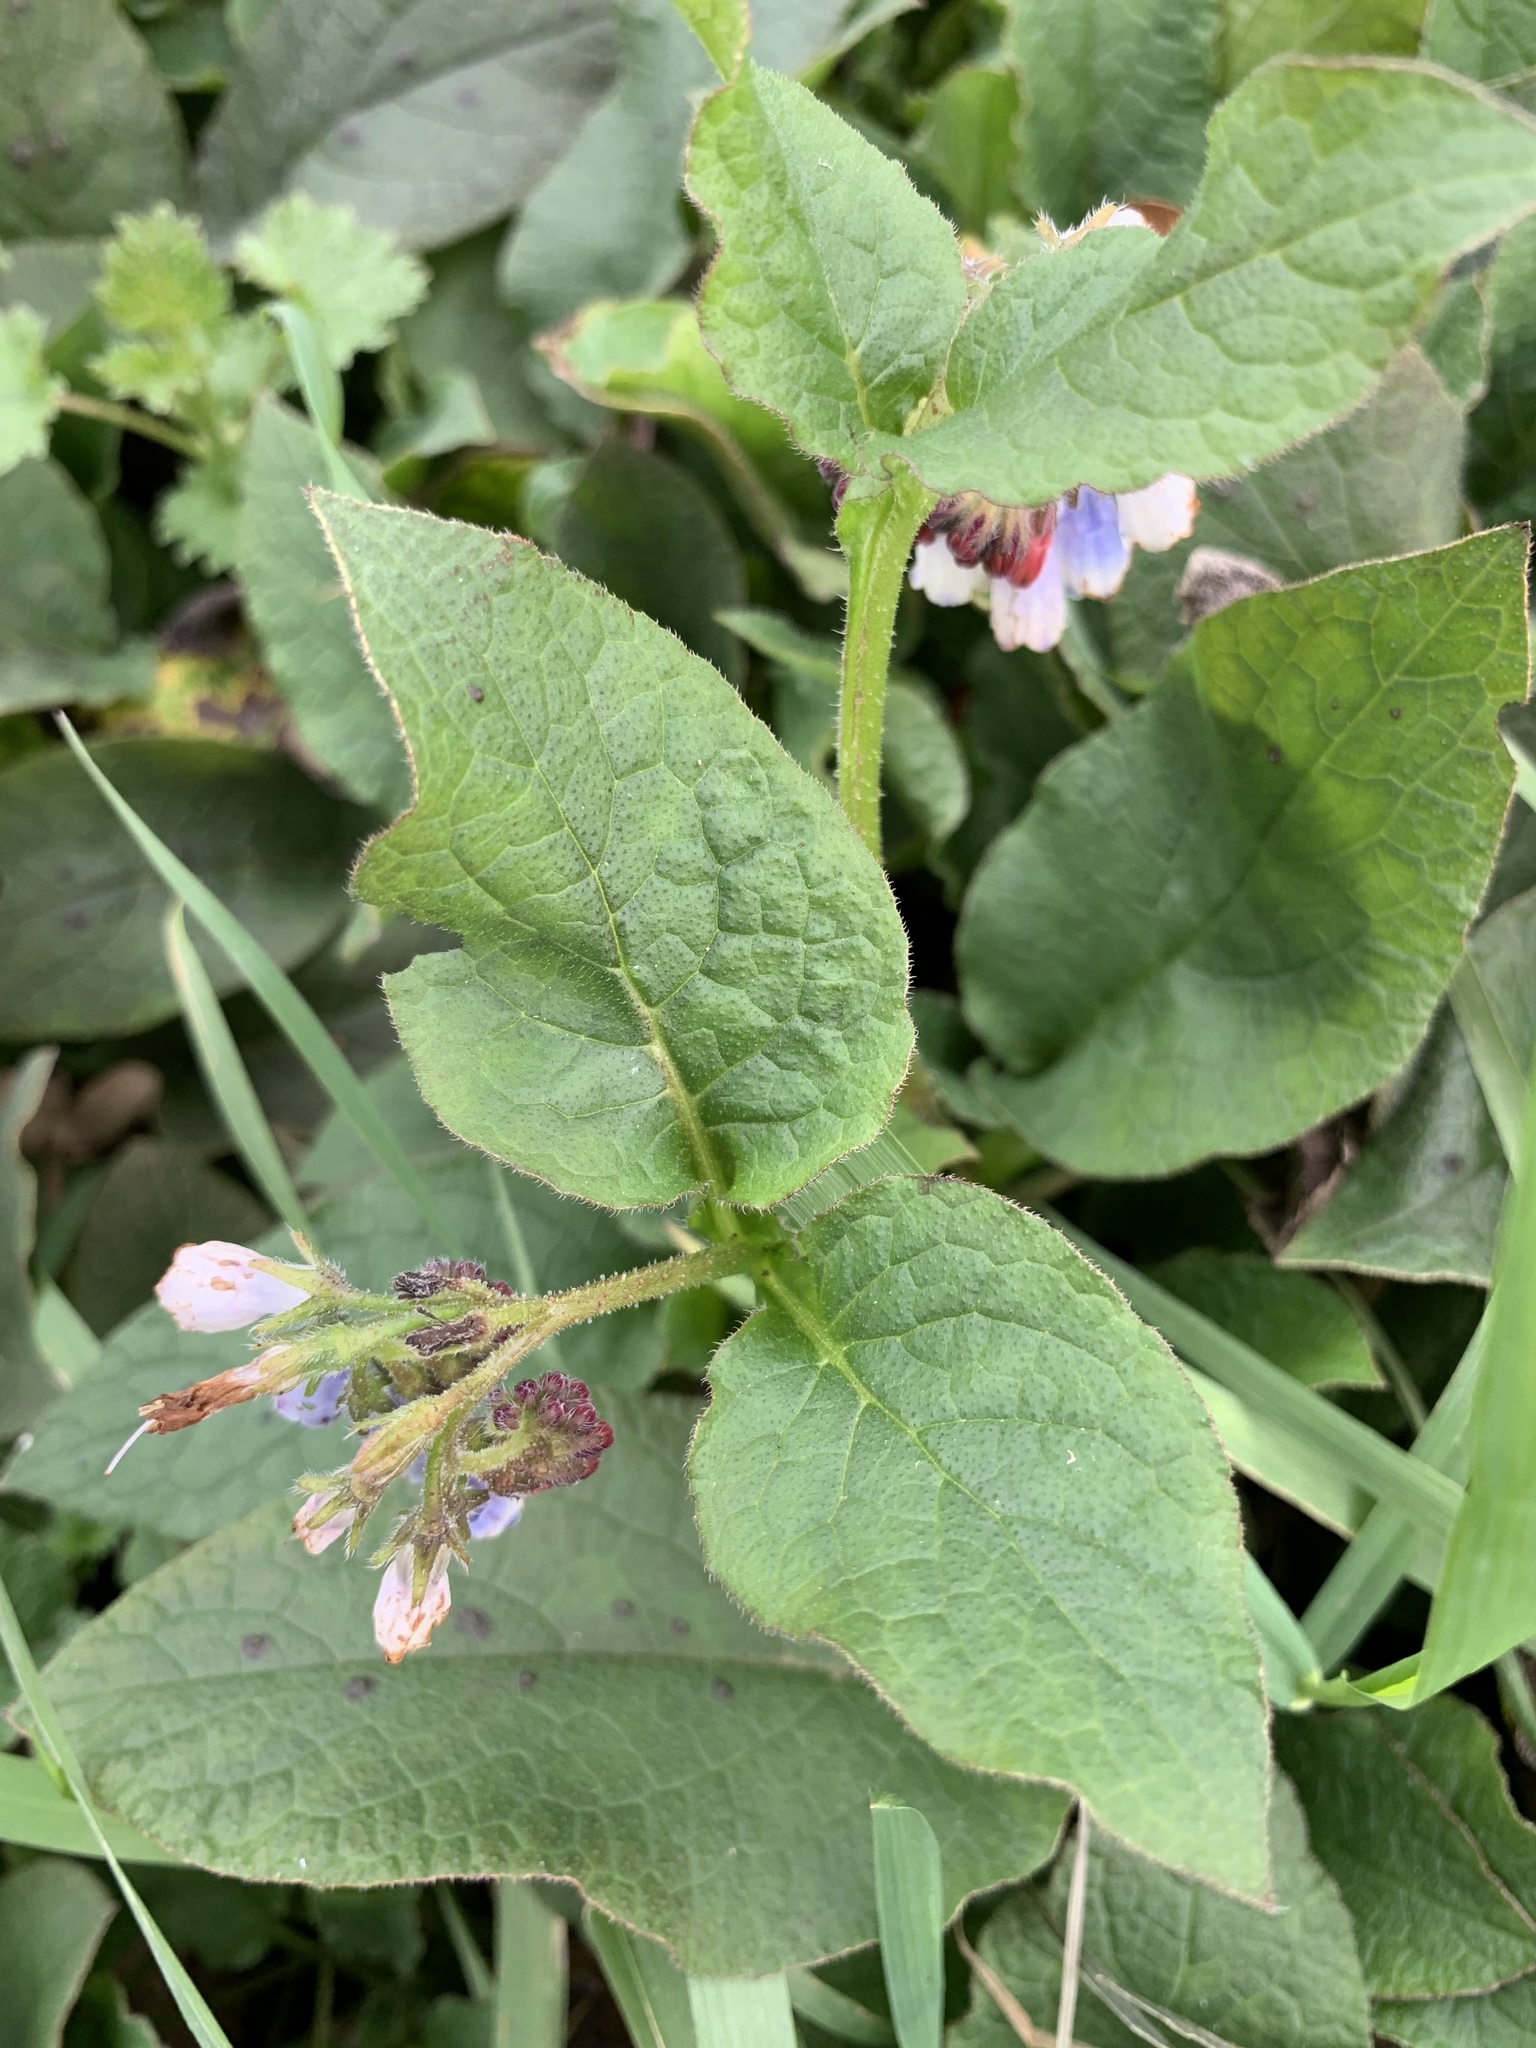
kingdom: Plantae
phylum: Tracheophyta
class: Magnoliopsida
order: Boraginales
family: Boraginaceae
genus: Symphytum
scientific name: Symphytum hidcotense
